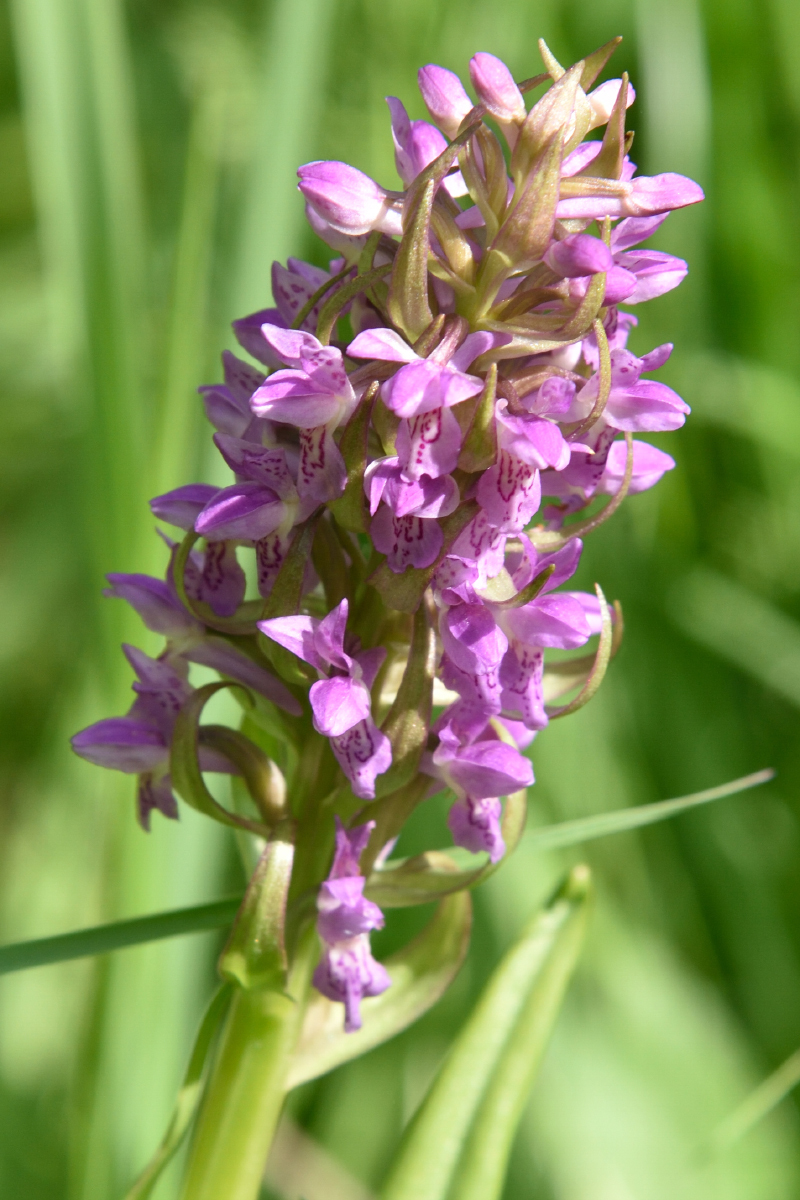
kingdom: Plantae
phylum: Tracheophyta
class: Liliopsida
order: Asparagales
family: Orchidaceae
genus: Dactylorhiza
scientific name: Dactylorhiza incarnata
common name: Early marsh-orchid
